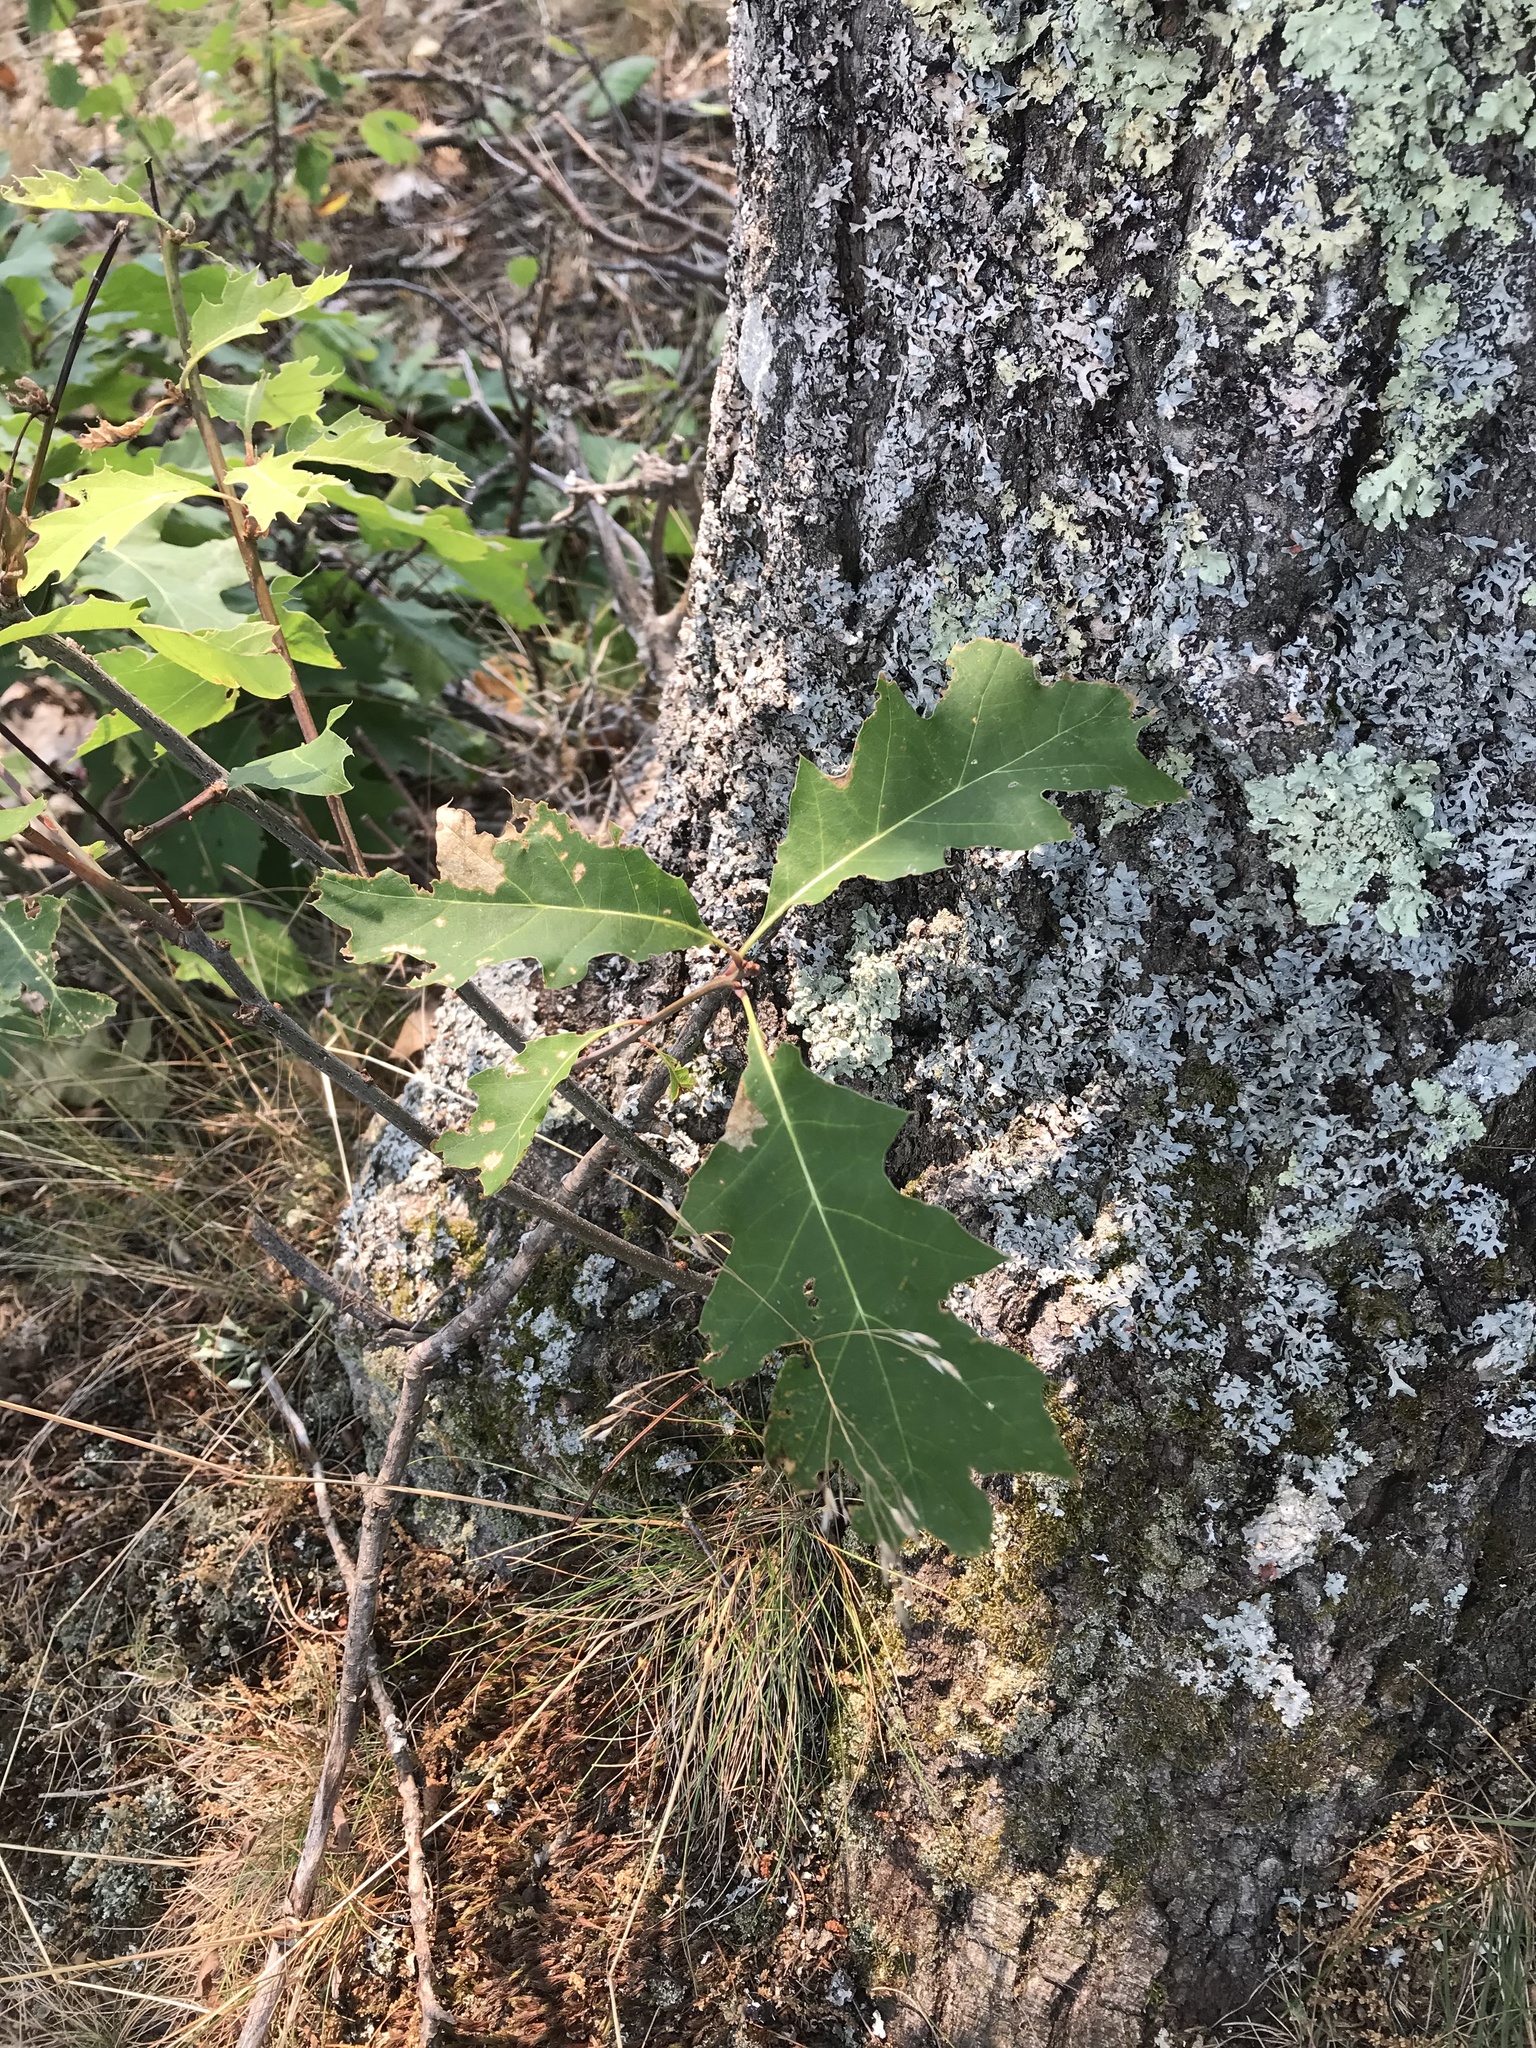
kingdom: Plantae
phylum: Tracheophyta
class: Magnoliopsida
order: Fagales
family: Fagaceae
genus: Quercus
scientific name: Quercus rubra
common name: Red oak
